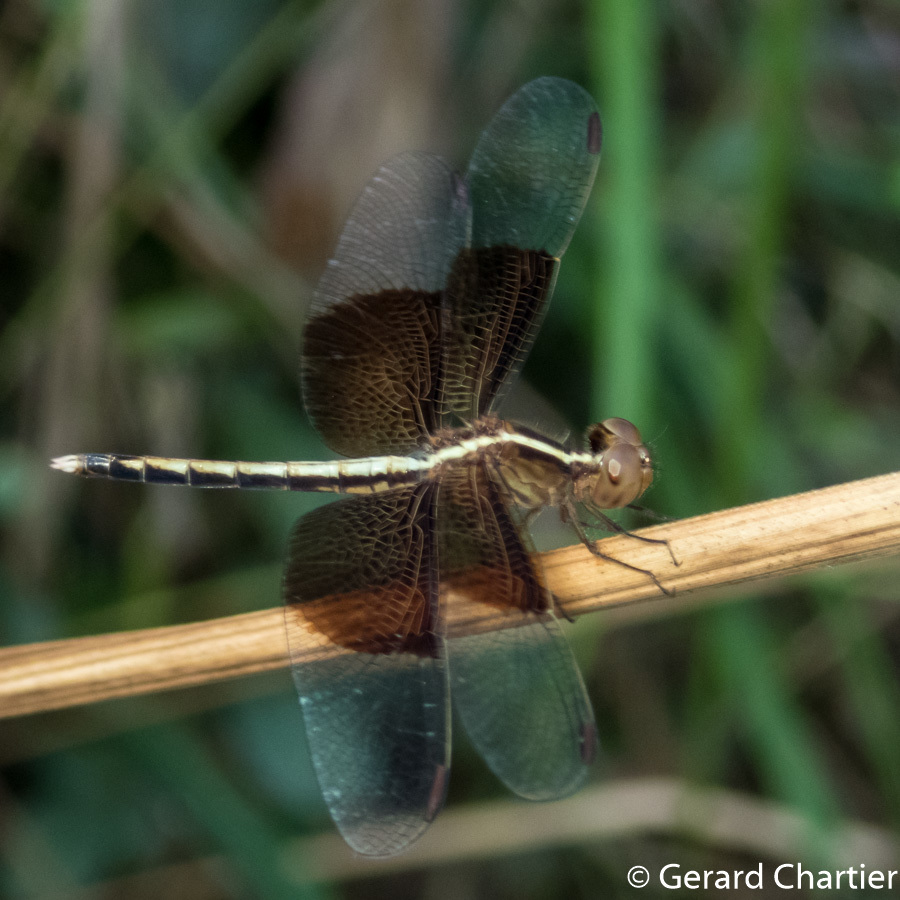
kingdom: Animalia
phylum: Arthropoda
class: Insecta
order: Odonata
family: Libellulidae
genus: Neurothemis
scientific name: Neurothemis tullia
